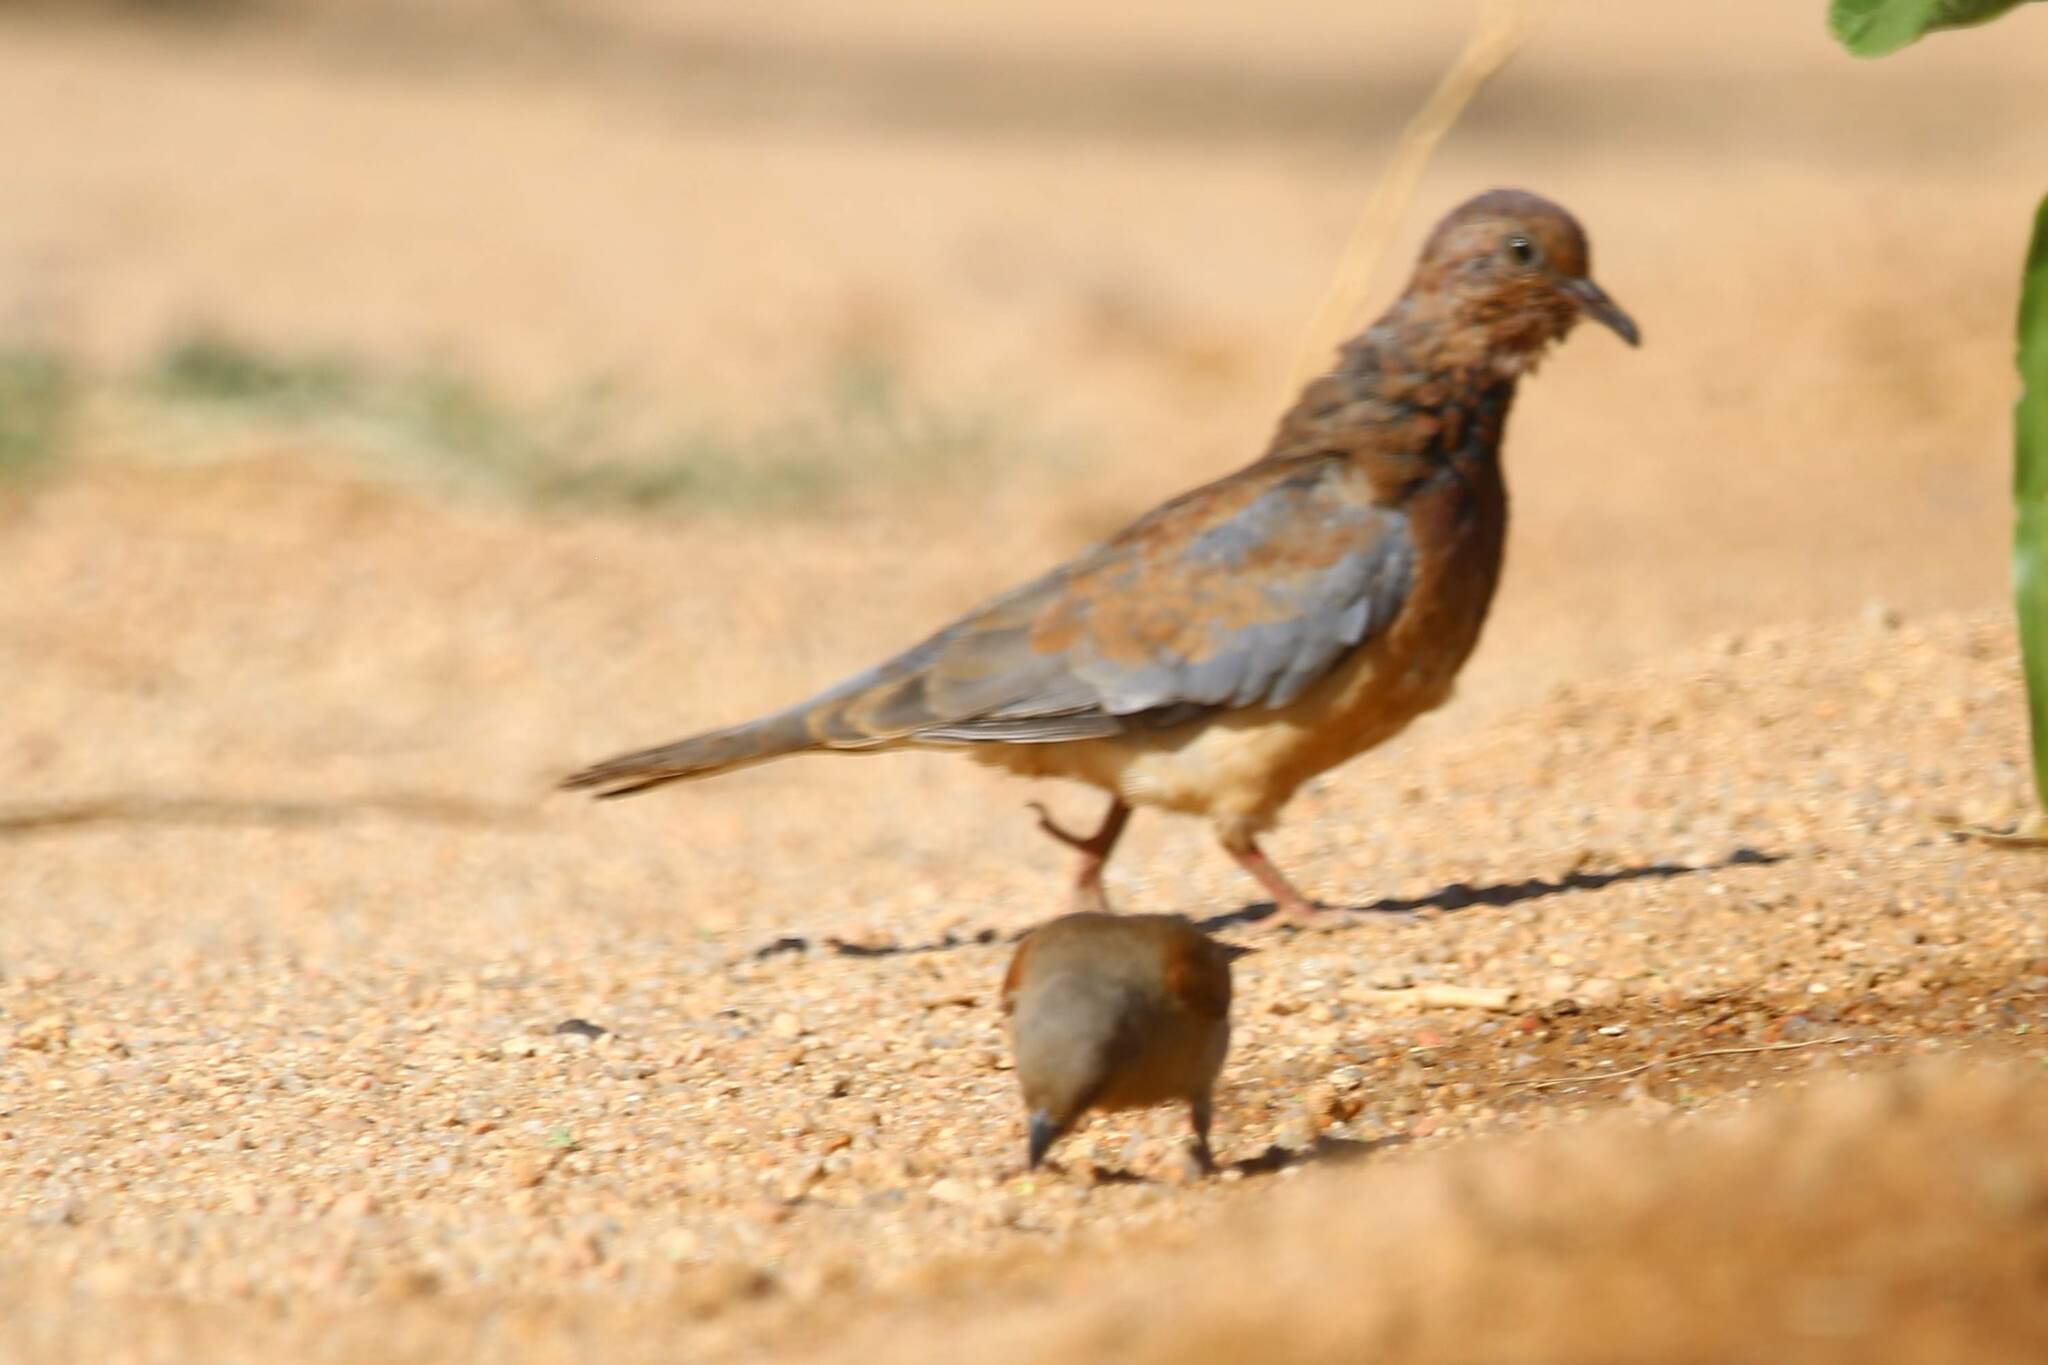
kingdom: Animalia
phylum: Chordata
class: Aves
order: Columbiformes
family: Columbidae
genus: Spilopelia
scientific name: Spilopelia senegalensis
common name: Laughing dove
